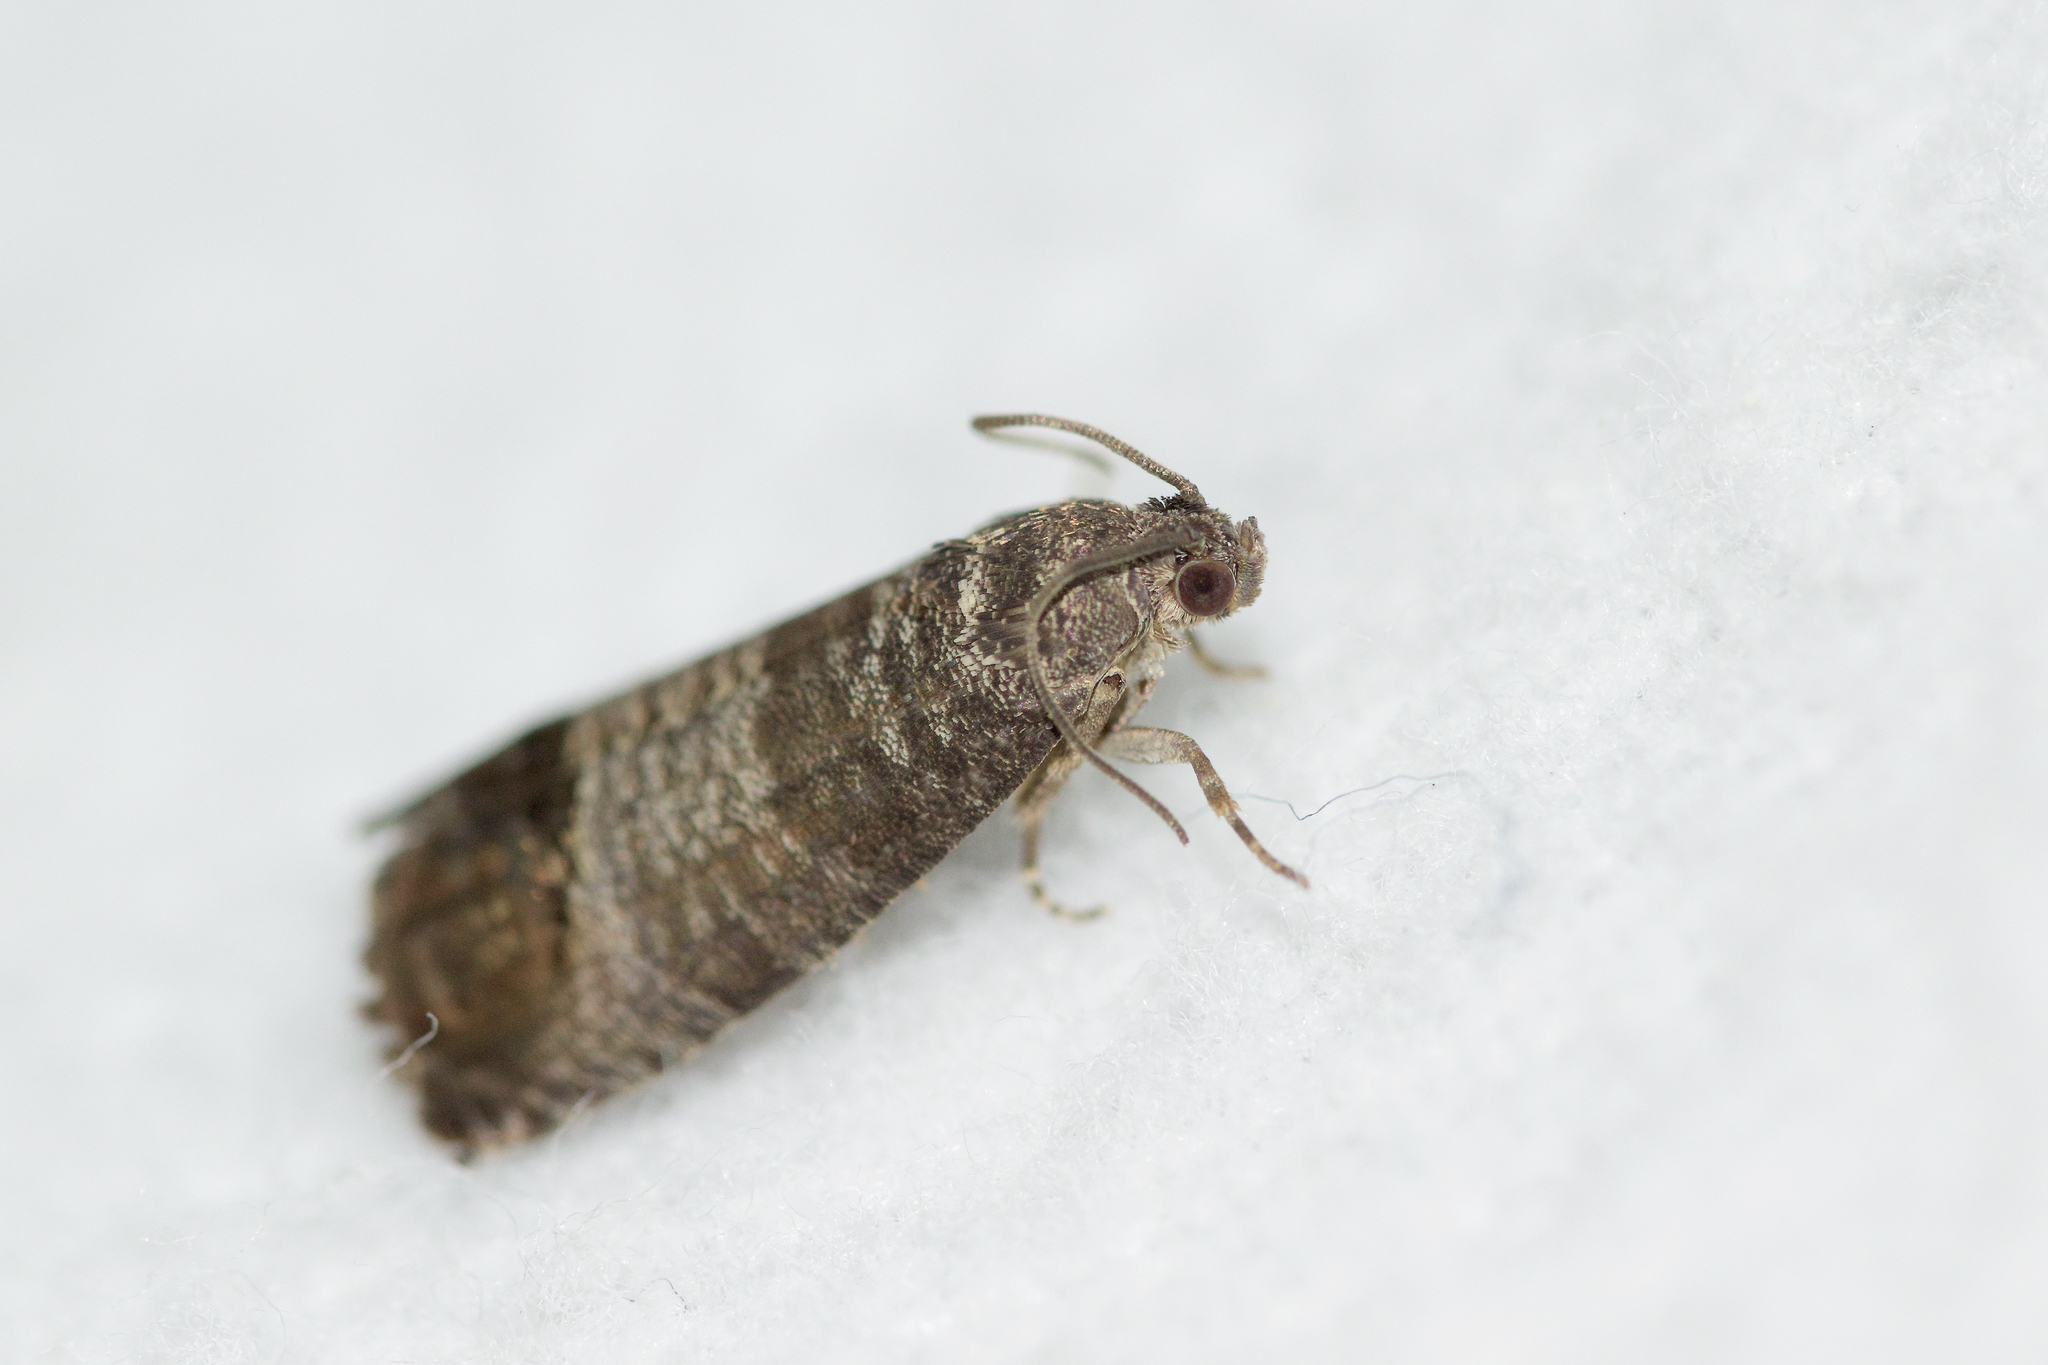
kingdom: Animalia
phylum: Arthropoda
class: Insecta
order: Lepidoptera
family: Tortricidae
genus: Cydia
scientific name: Cydia pomonella
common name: Codling moth
